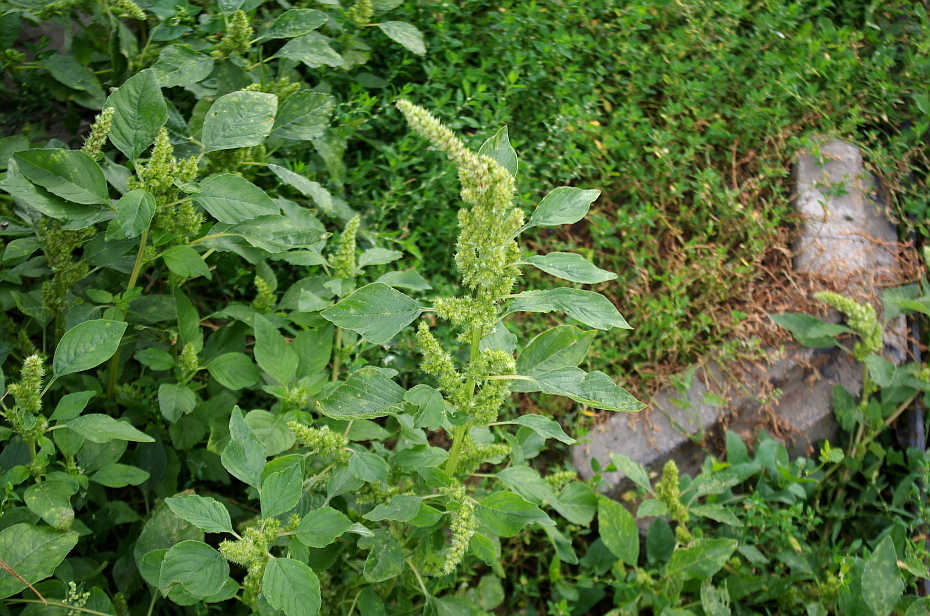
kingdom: Plantae
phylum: Tracheophyta
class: Magnoliopsida
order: Caryophyllales
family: Amaranthaceae
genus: Amaranthus
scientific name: Amaranthus retroflexus
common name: Redroot amaranth
